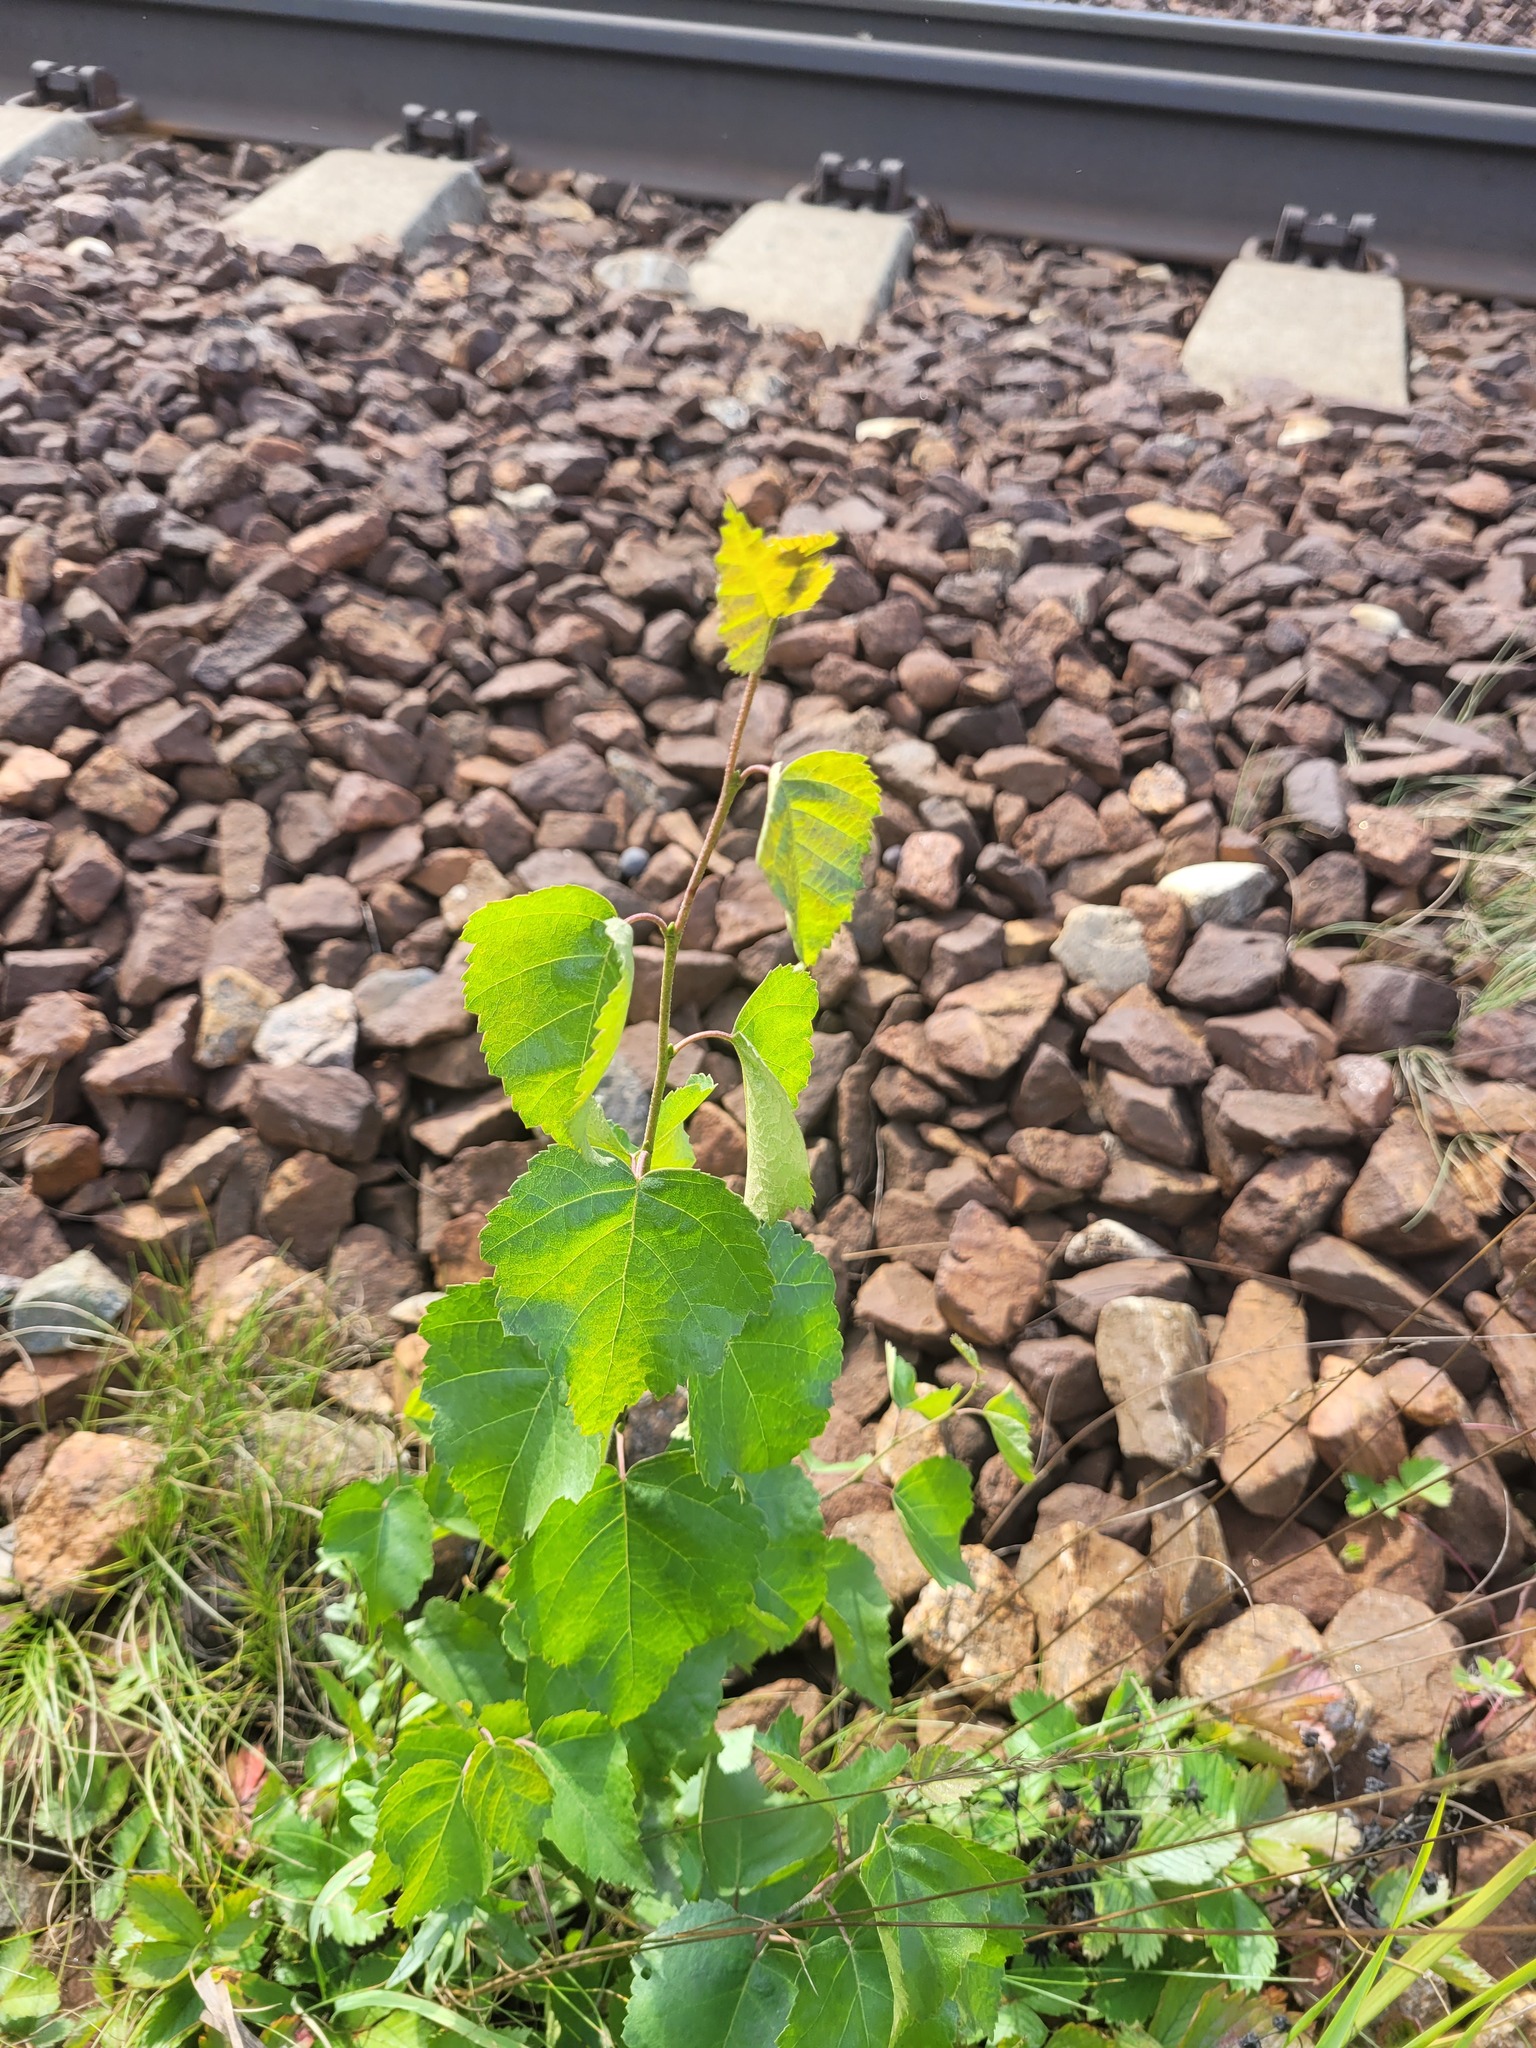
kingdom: Plantae
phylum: Tracheophyta
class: Magnoliopsida
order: Fagales
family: Betulaceae
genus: Betula
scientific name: Betula pendula
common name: Silver birch
